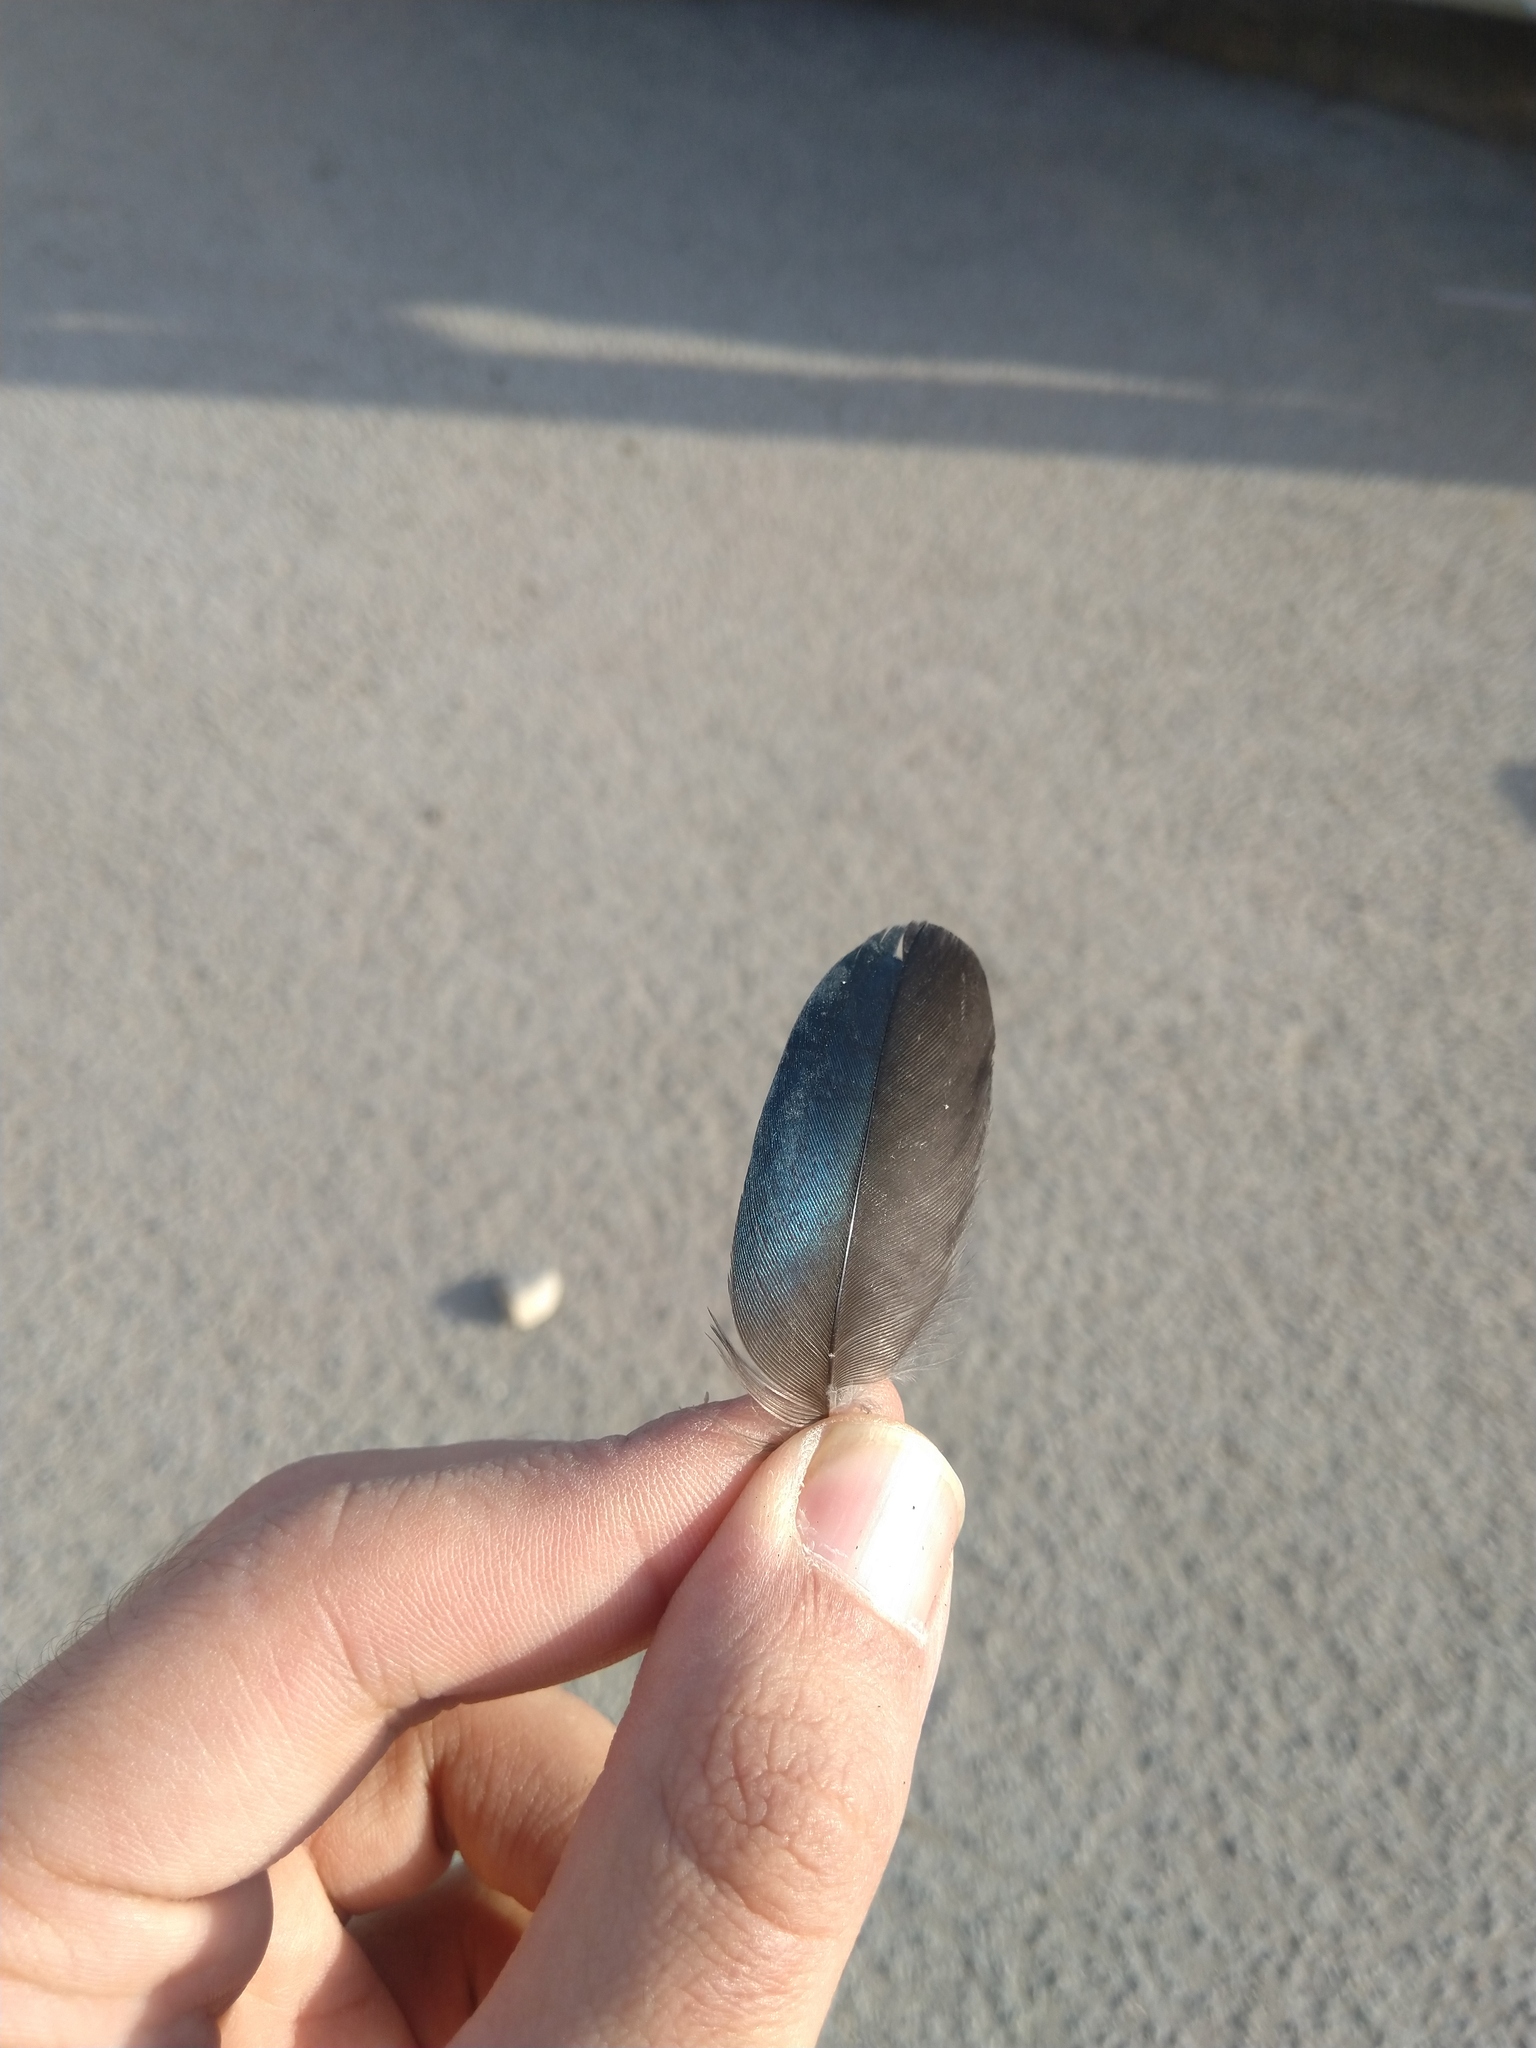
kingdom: Animalia
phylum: Chordata
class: Aves
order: Passeriformes
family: Corvidae
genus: Pica
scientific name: Pica pica
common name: Eurasian magpie
